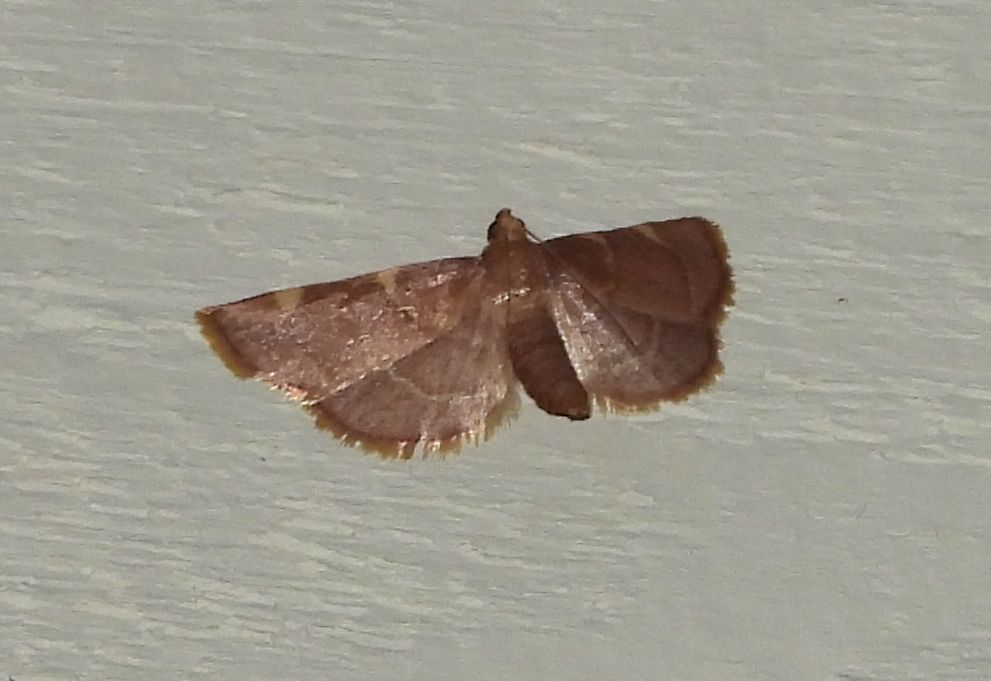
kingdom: Animalia
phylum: Arthropoda
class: Insecta
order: Lepidoptera
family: Pyralidae
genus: Hypsopygia
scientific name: Hypsopygia costalis
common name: Gold triangle
